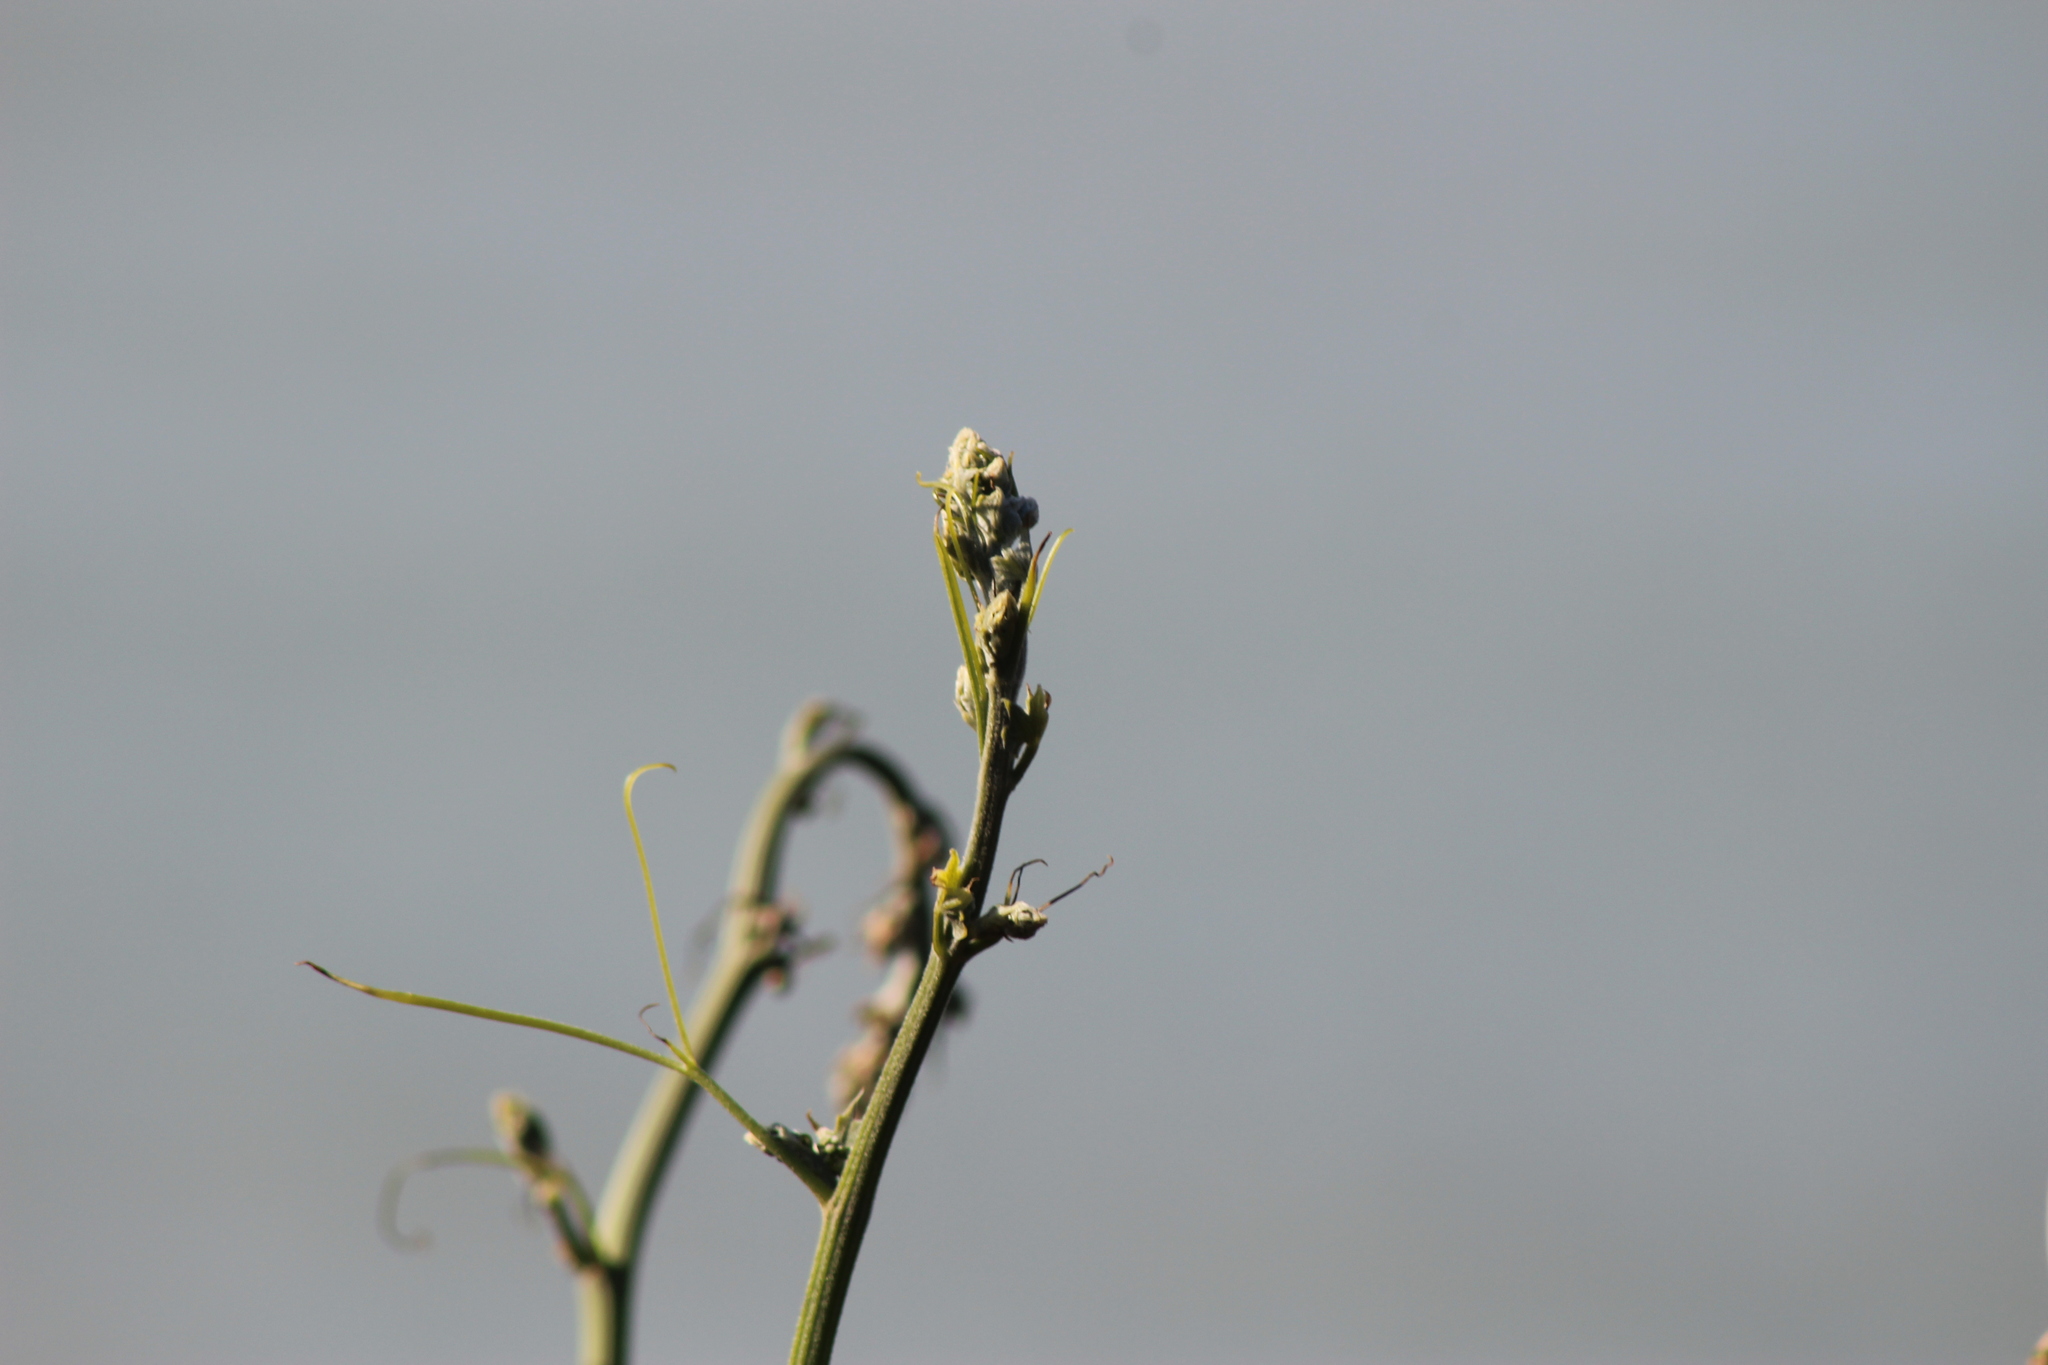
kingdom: Plantae
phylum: Tracheophyta
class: Magnoliopsida
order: Cucurbitales
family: Cucurbitaceae
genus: Marah
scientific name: Marah
